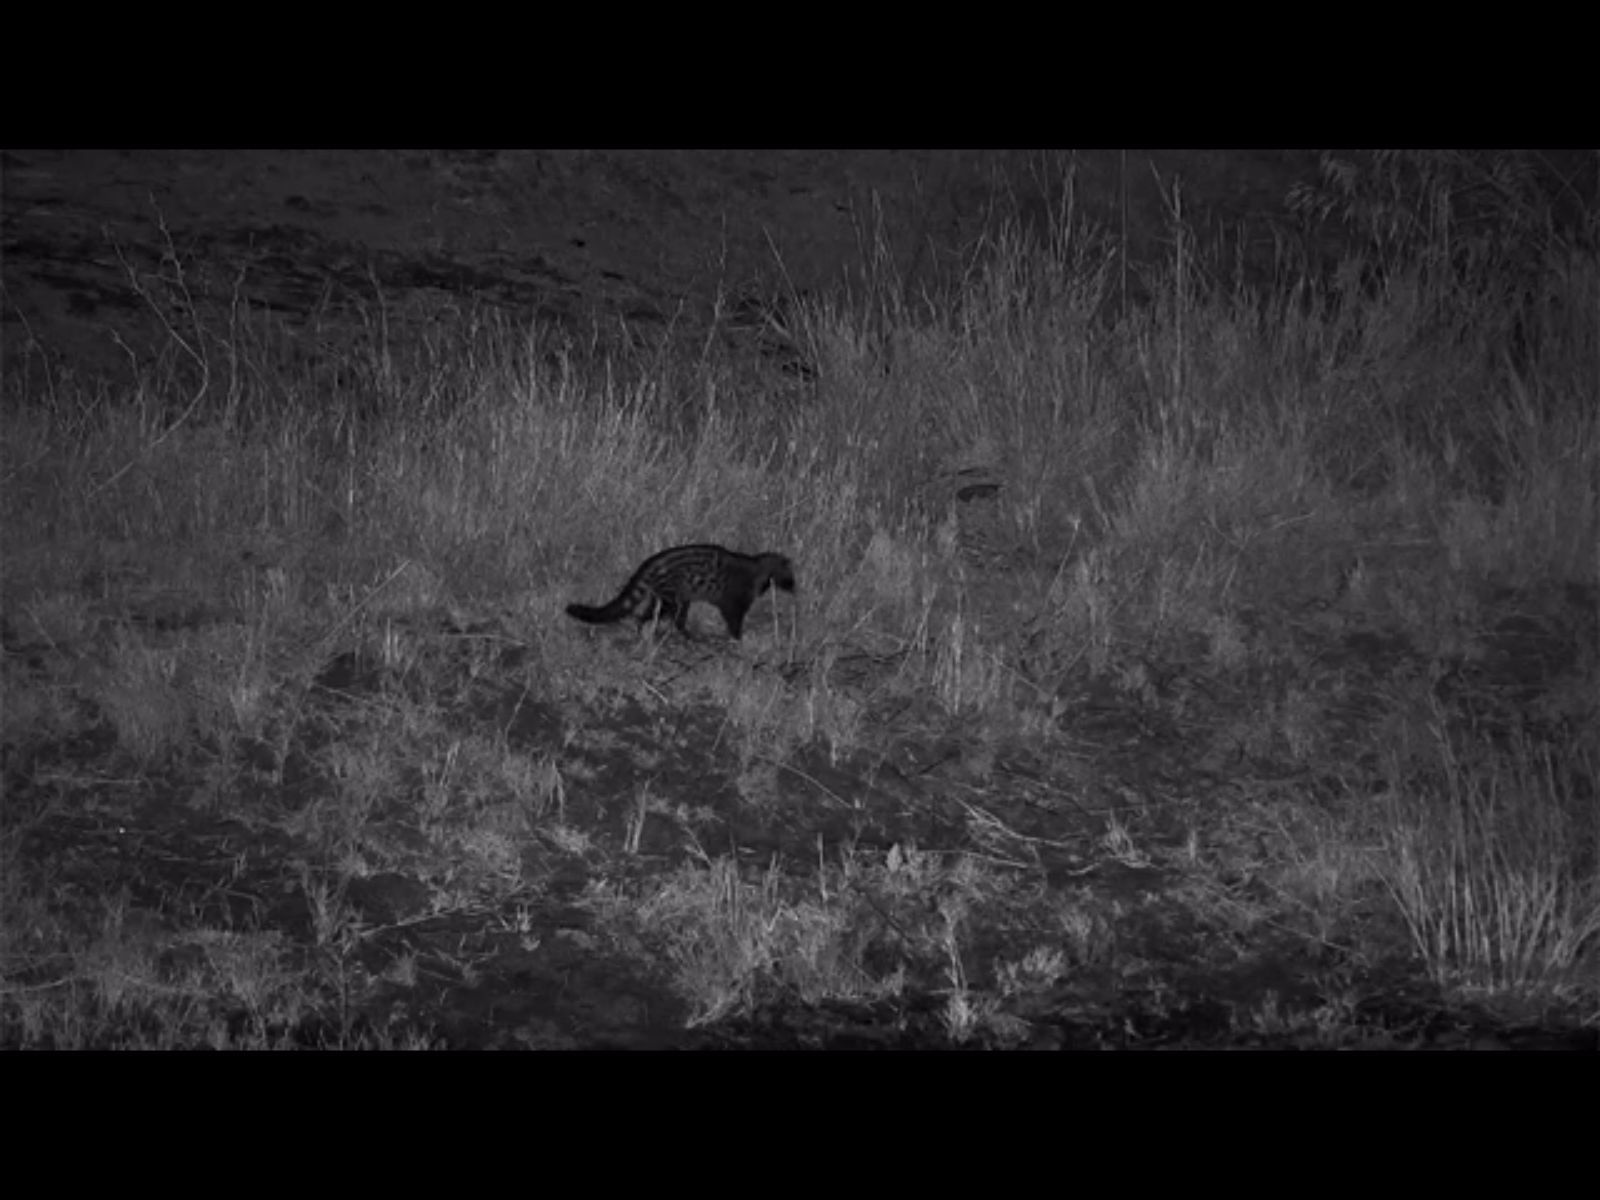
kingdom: Animalia
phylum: Chordata
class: Mammalia
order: Carnivora
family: Viverridae
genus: Civettictis
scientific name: Civettictis civetta
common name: African civet
